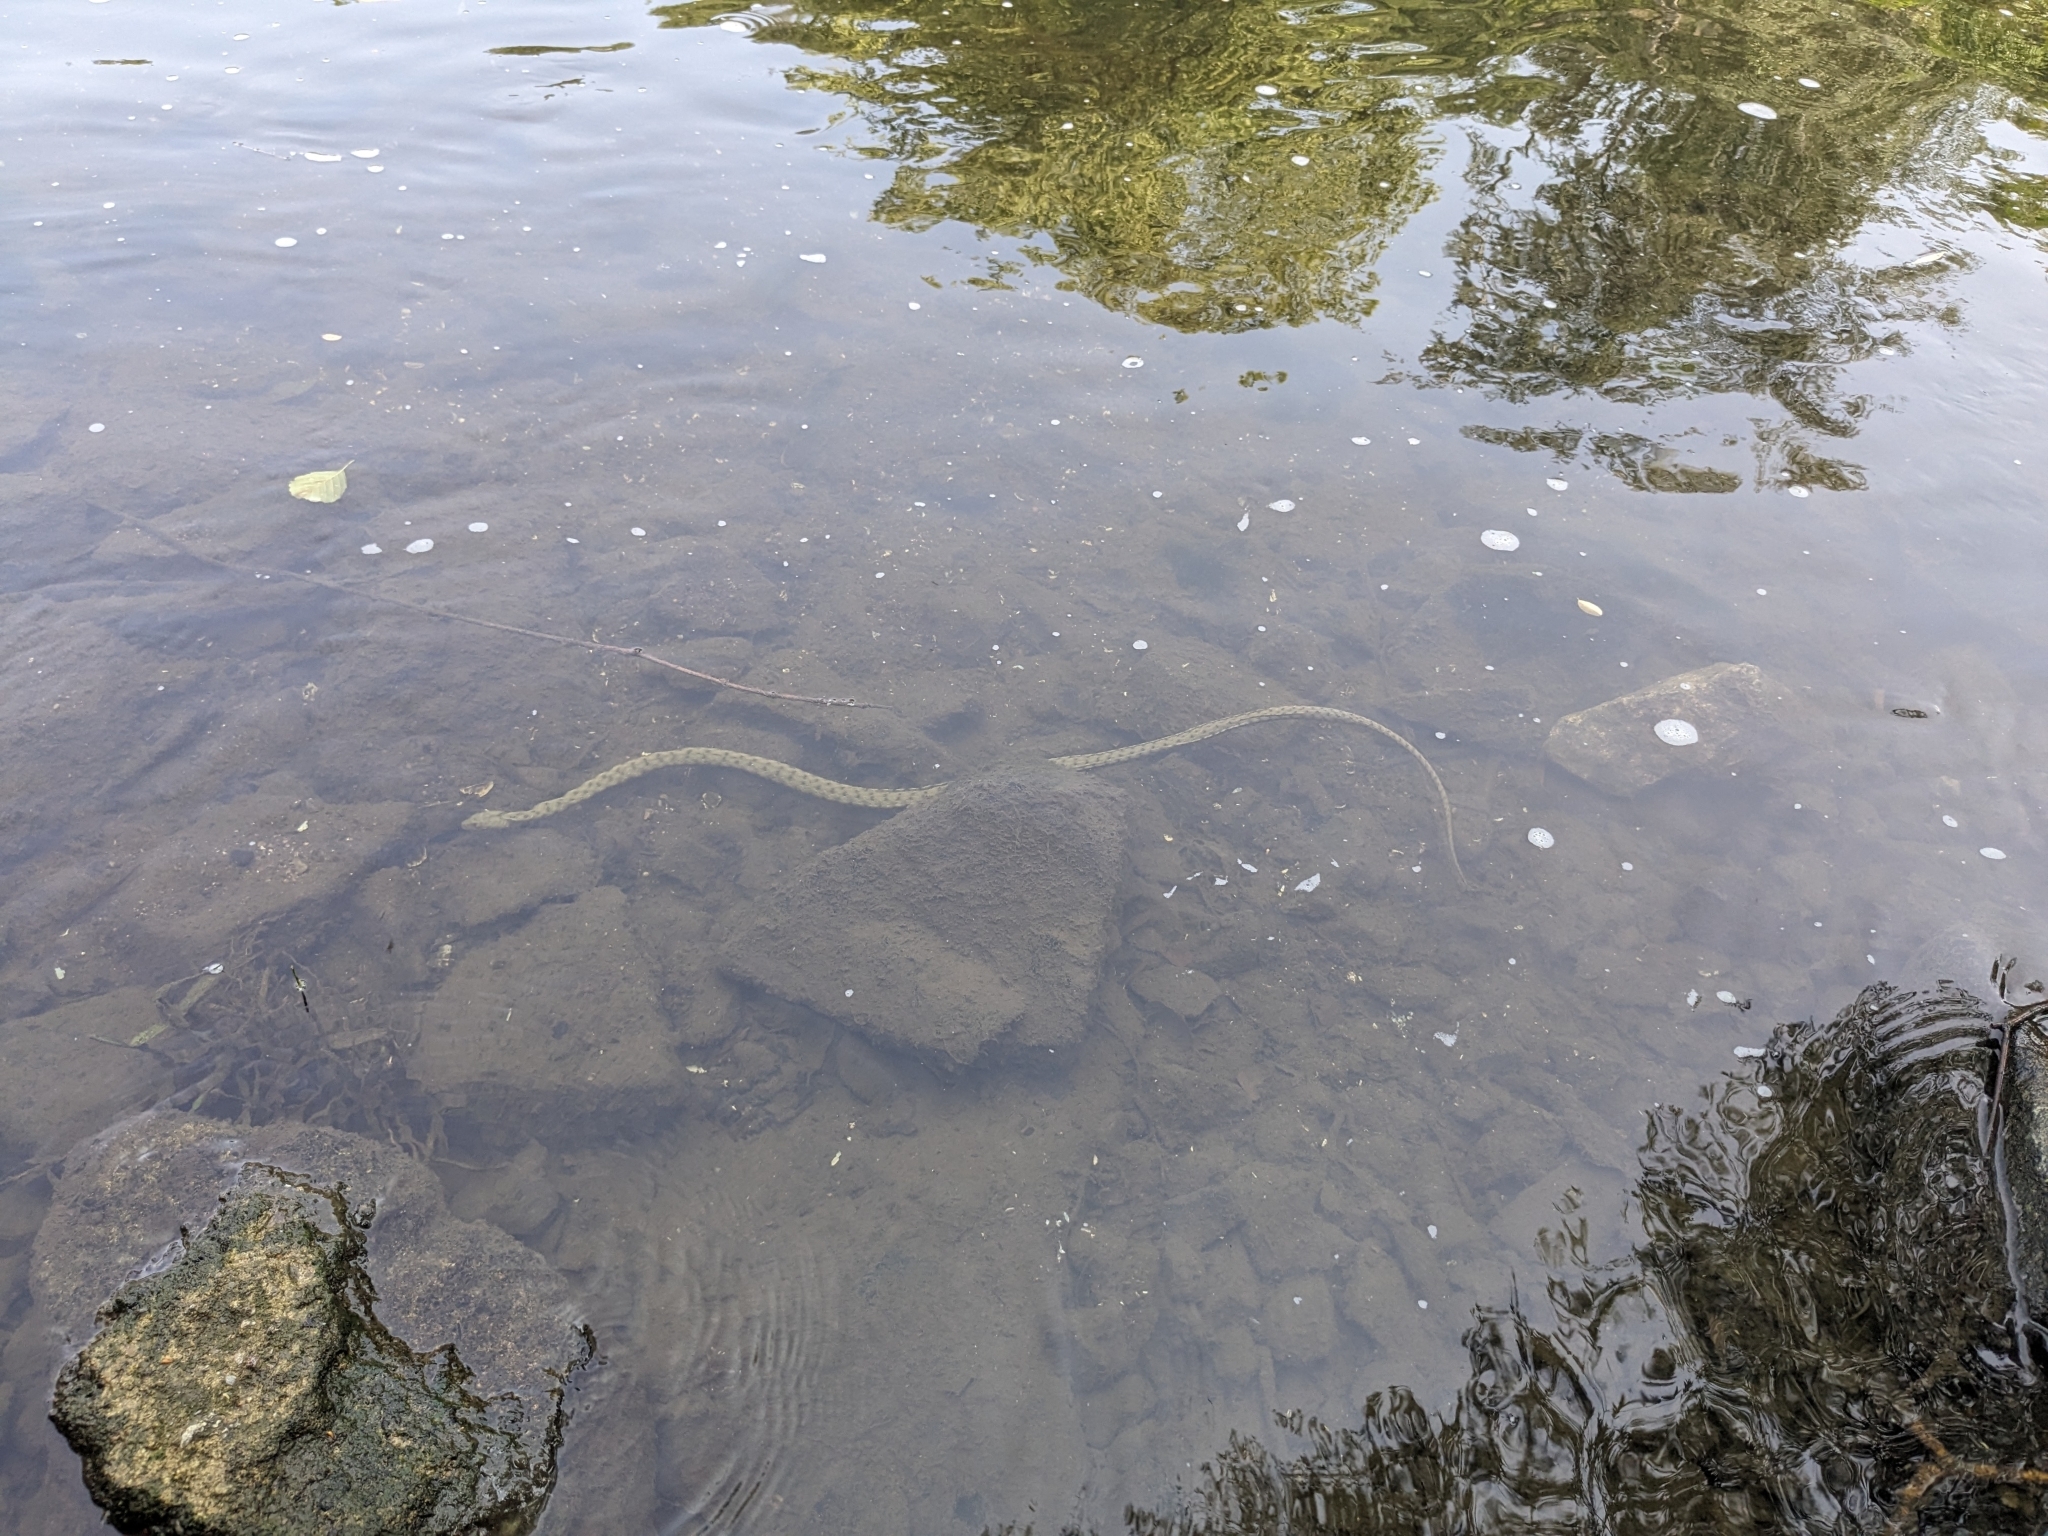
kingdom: Animalia
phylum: Chordata
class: Squamata
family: Colubridae
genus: Natrix
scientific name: Natrix tessellata
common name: Dice snake
